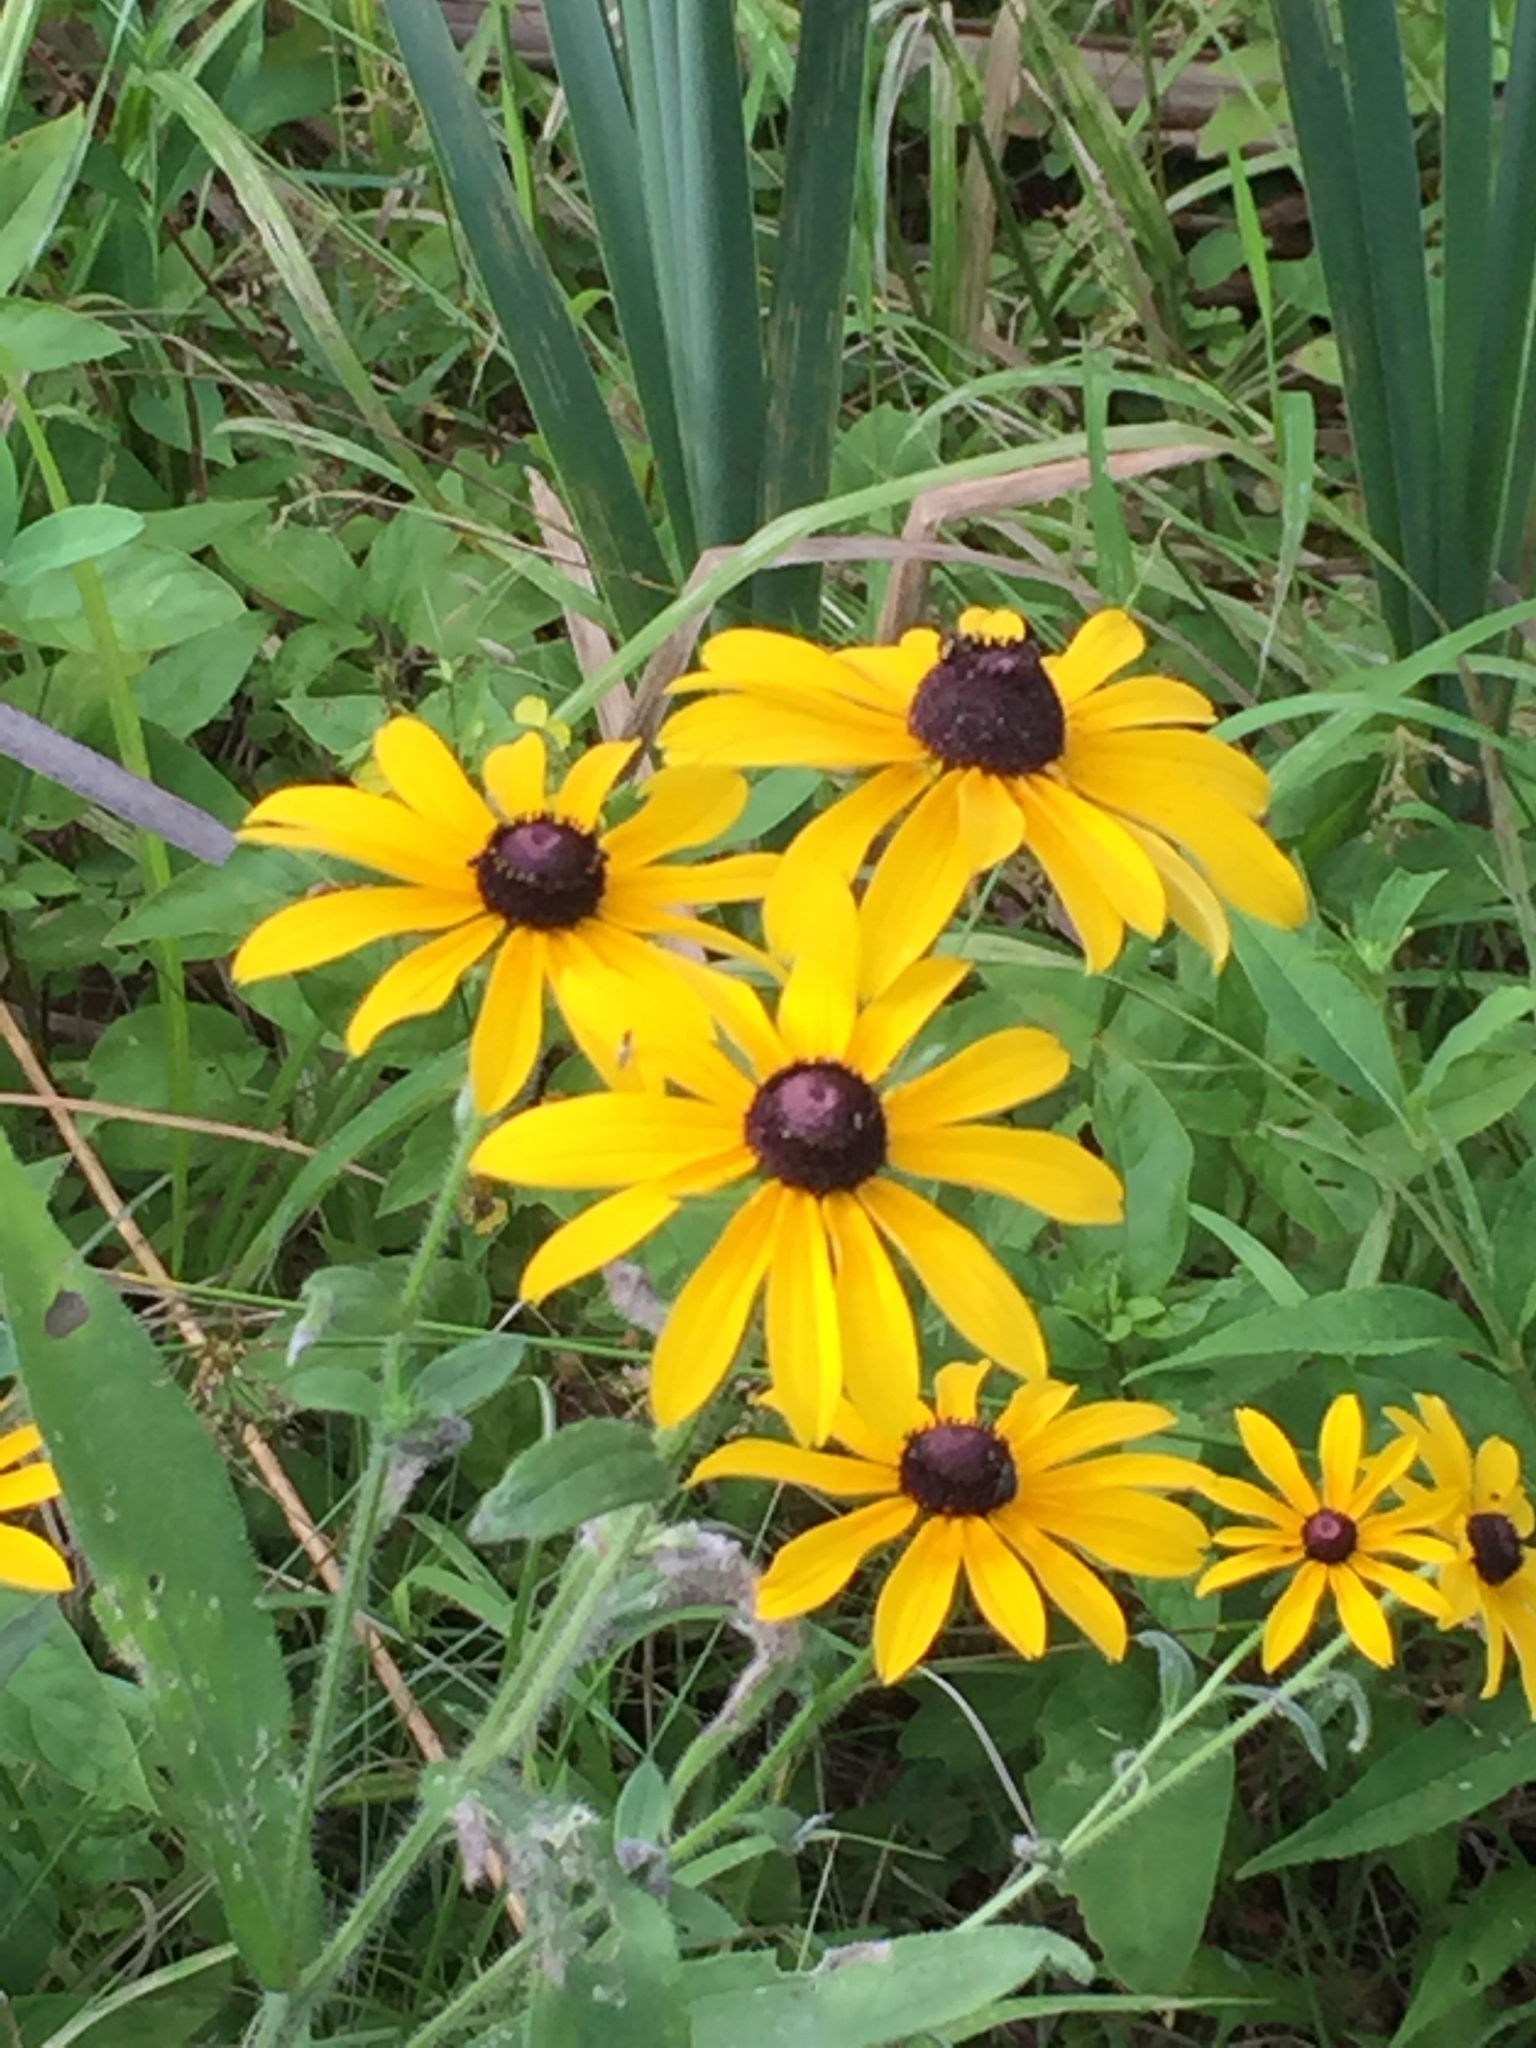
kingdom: Plantae
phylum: Tracheophyta
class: Magnoliopsida
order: Asterales
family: Asteraceae
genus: Rudbeckia
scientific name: Rudbeckia hirta
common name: Black-eyed-susan
